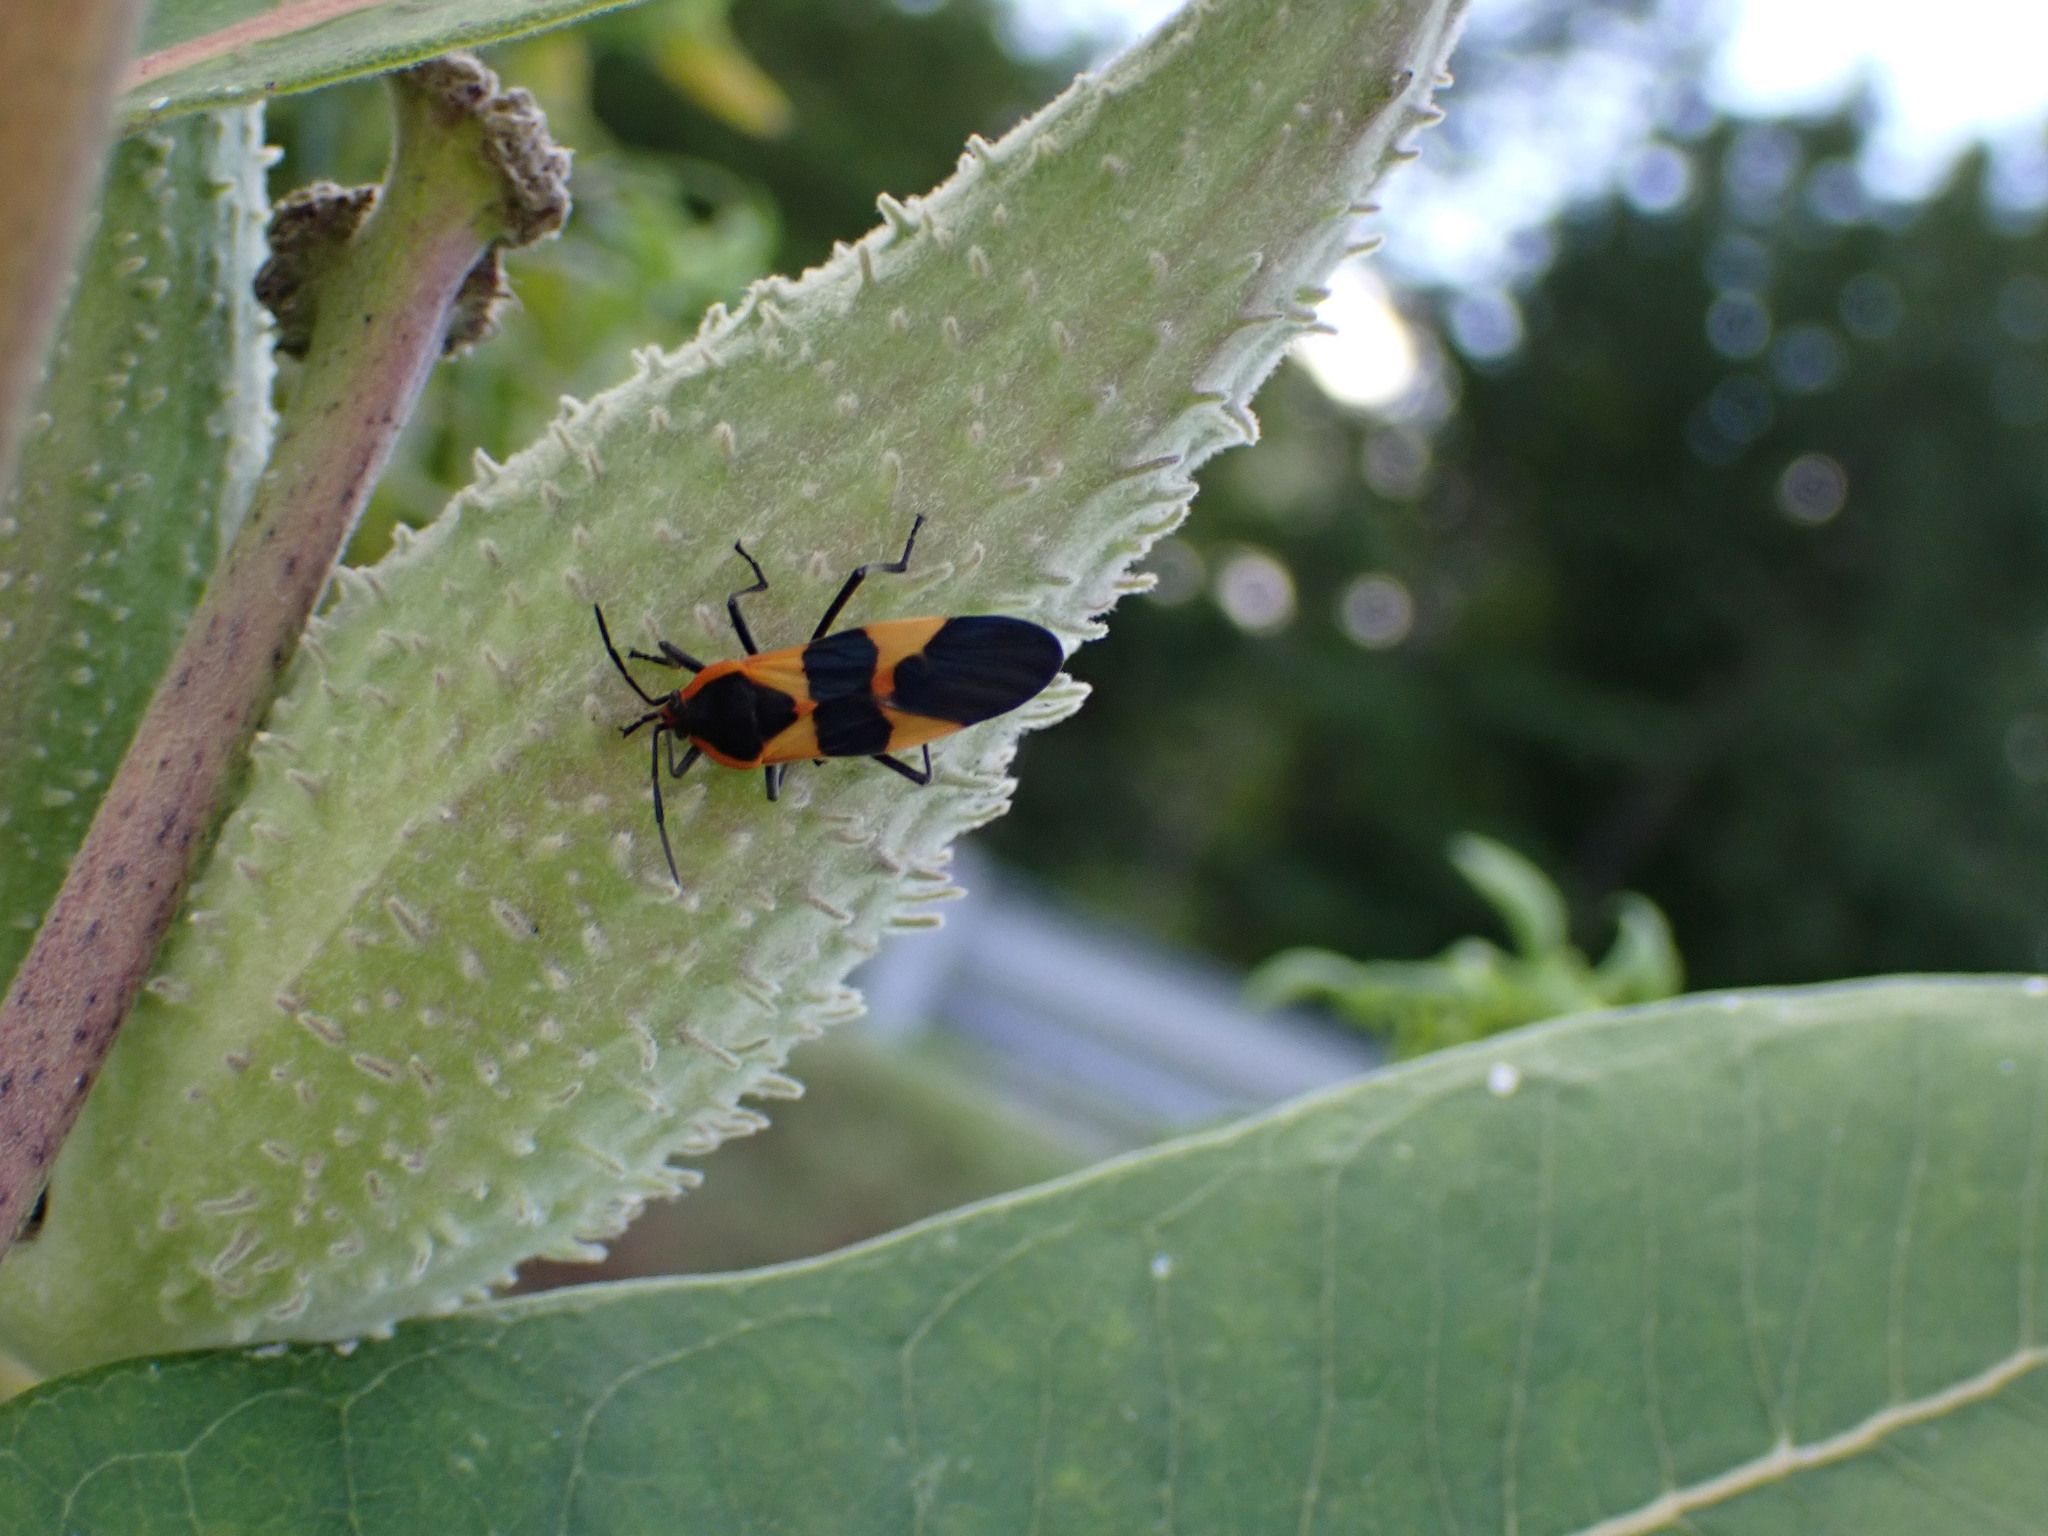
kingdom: Animalia
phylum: Arthropoda
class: Insecta
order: Hemiptera
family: Lygaeidae
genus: Oncopeltus
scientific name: Oncopeltus fasciatus
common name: Large milkweed bug
